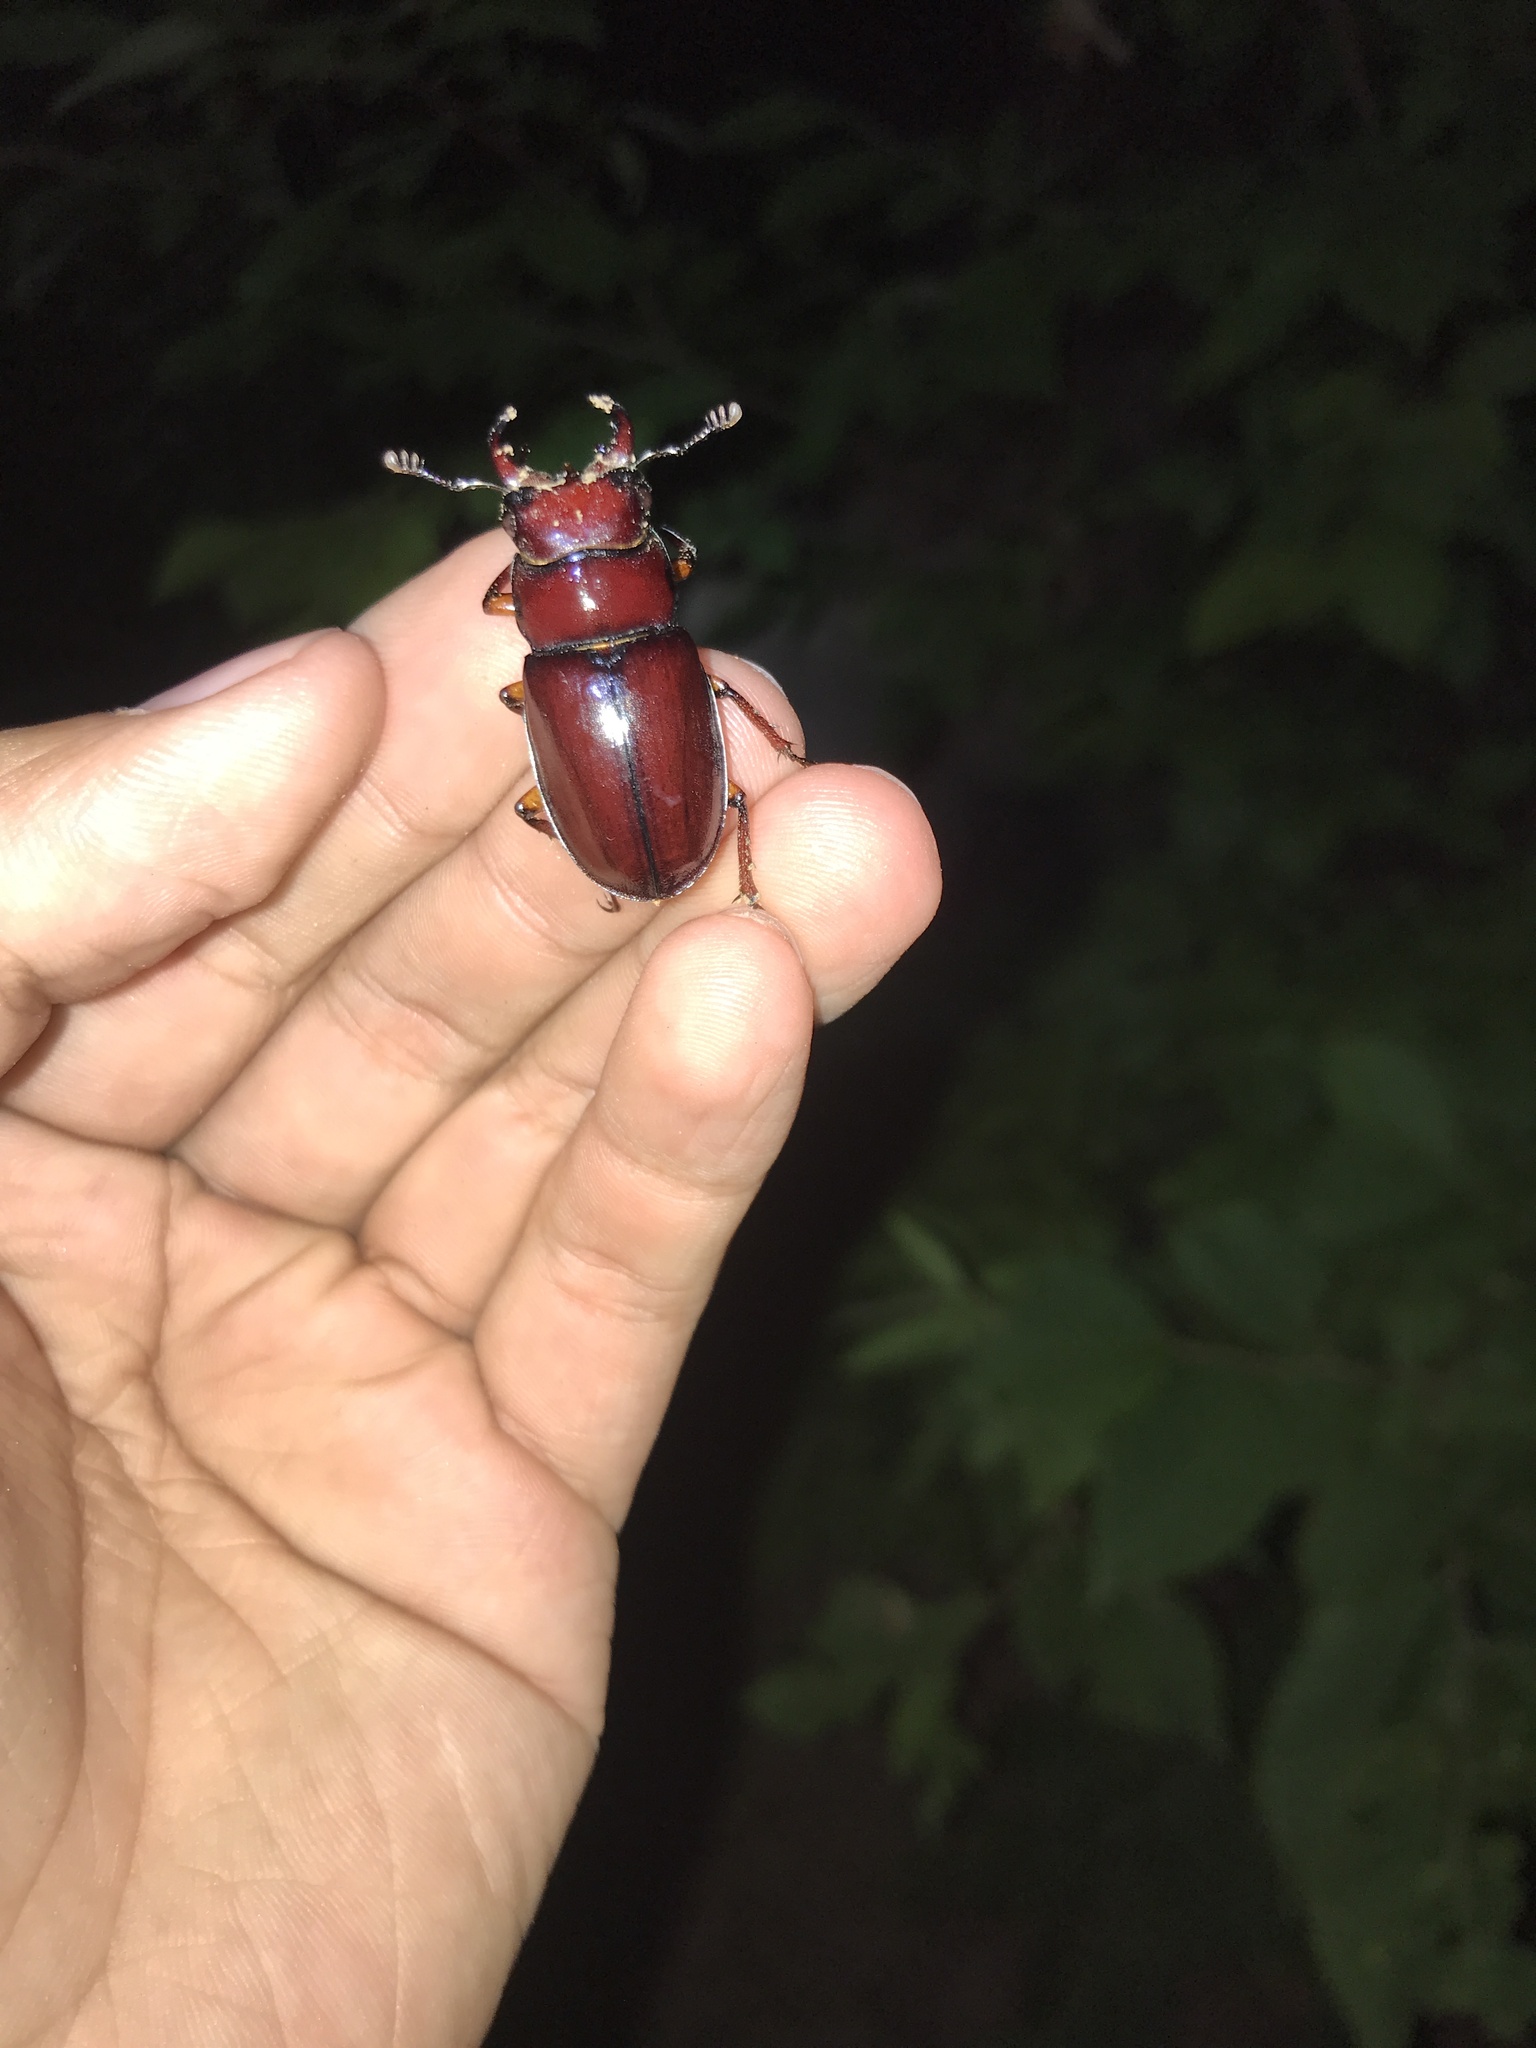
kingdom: Animalia
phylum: Arthropoda
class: Insecta
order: Coleoptera
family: Lucanidae
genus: Lucanus
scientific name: Lucanus capreolus
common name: Stag beetle
